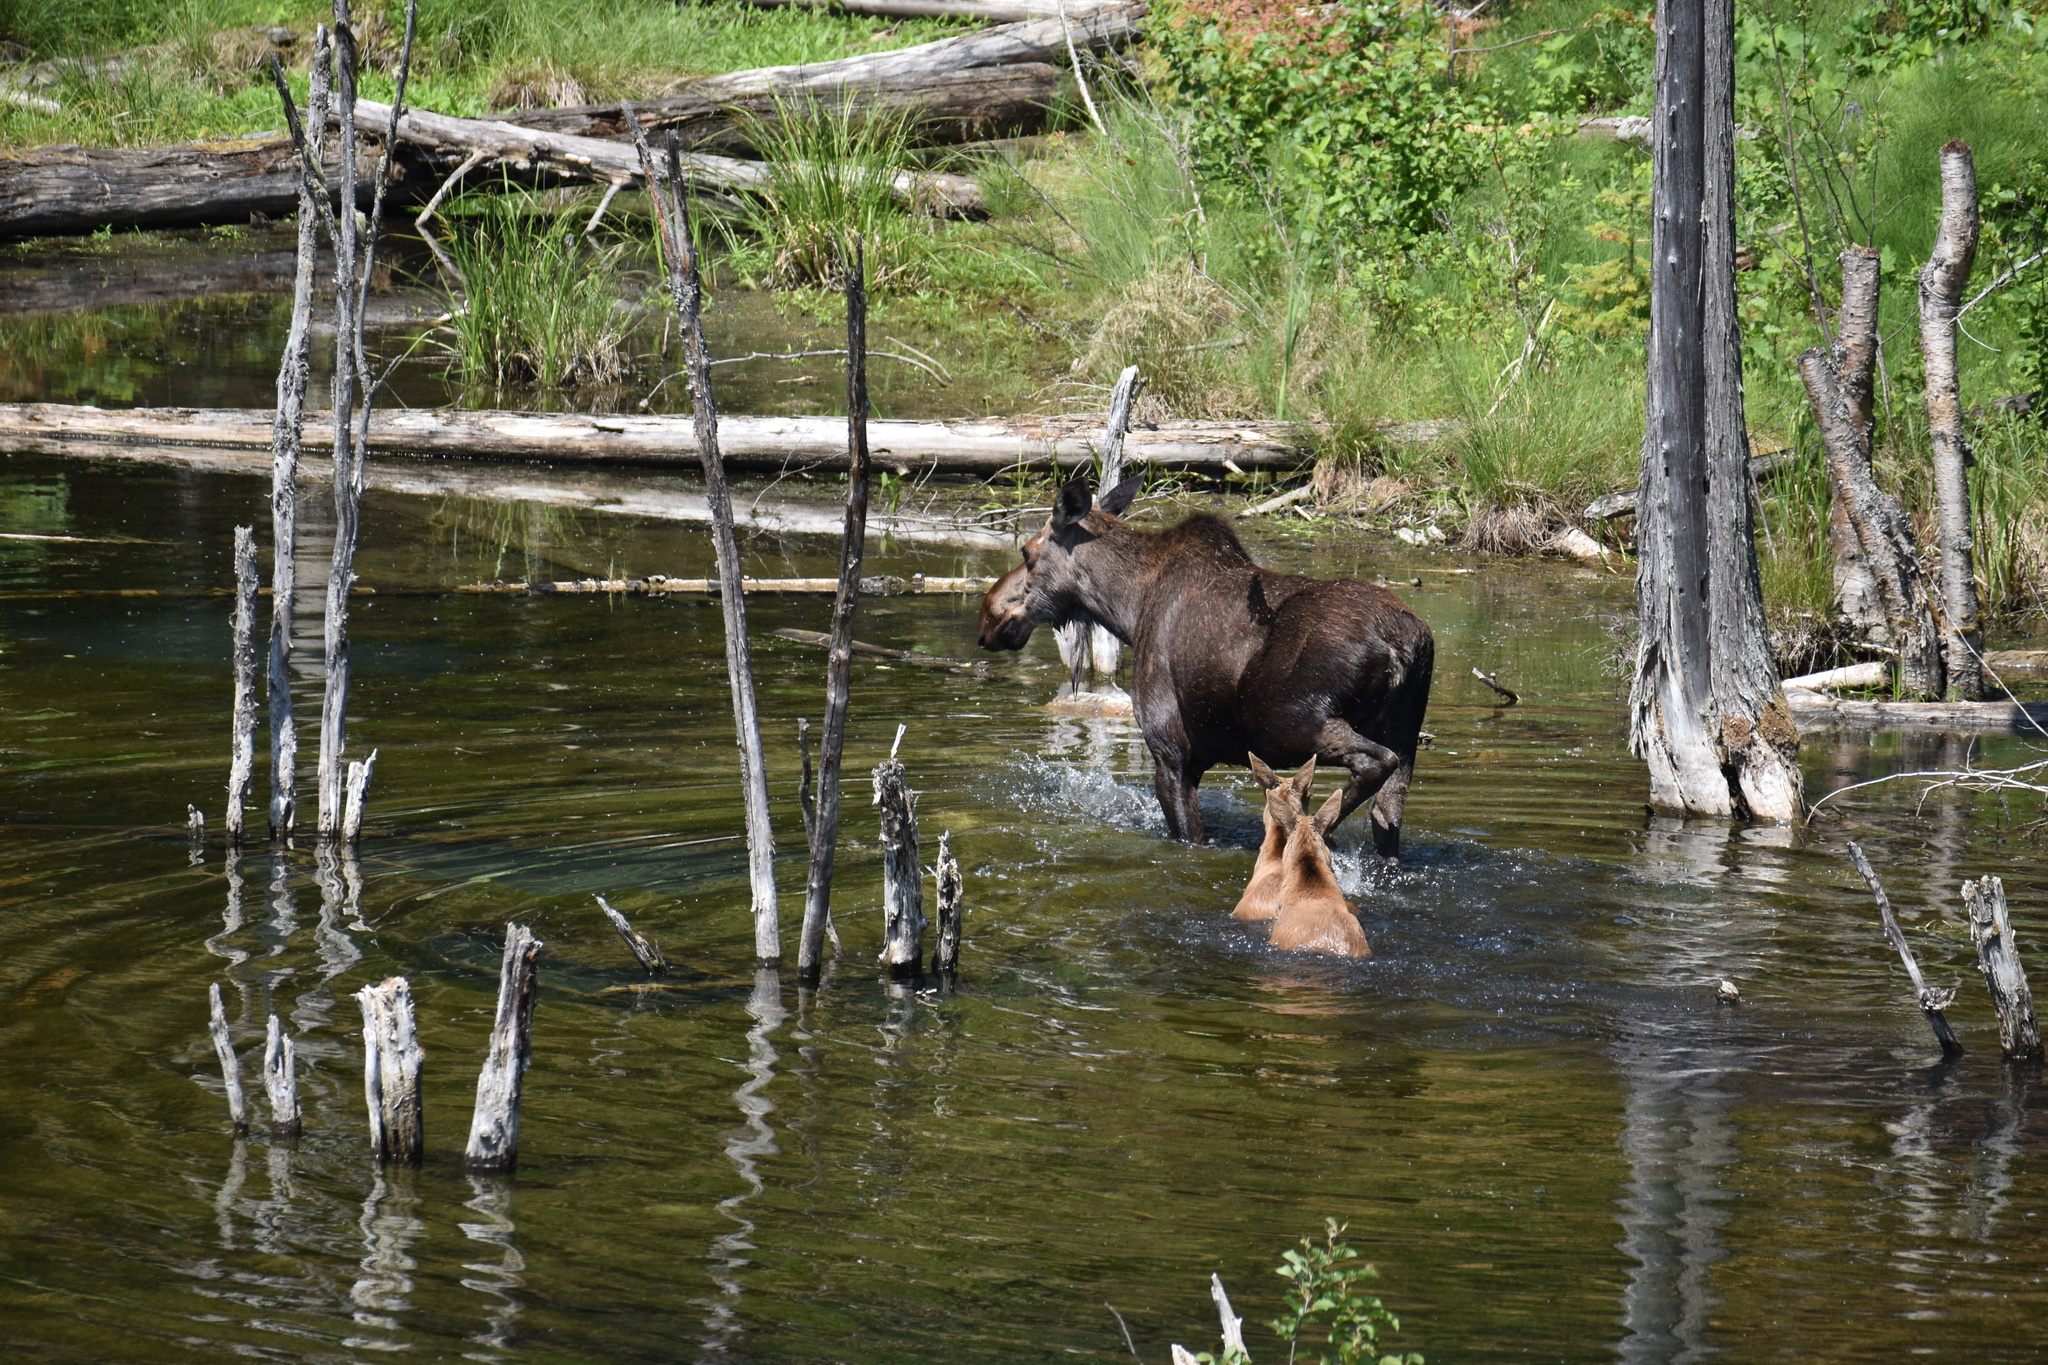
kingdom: Animalia
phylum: Chordata
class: Mammalia
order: Artiodactyla
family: Cervidae
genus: Alces
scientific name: Alces alces
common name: Moose
